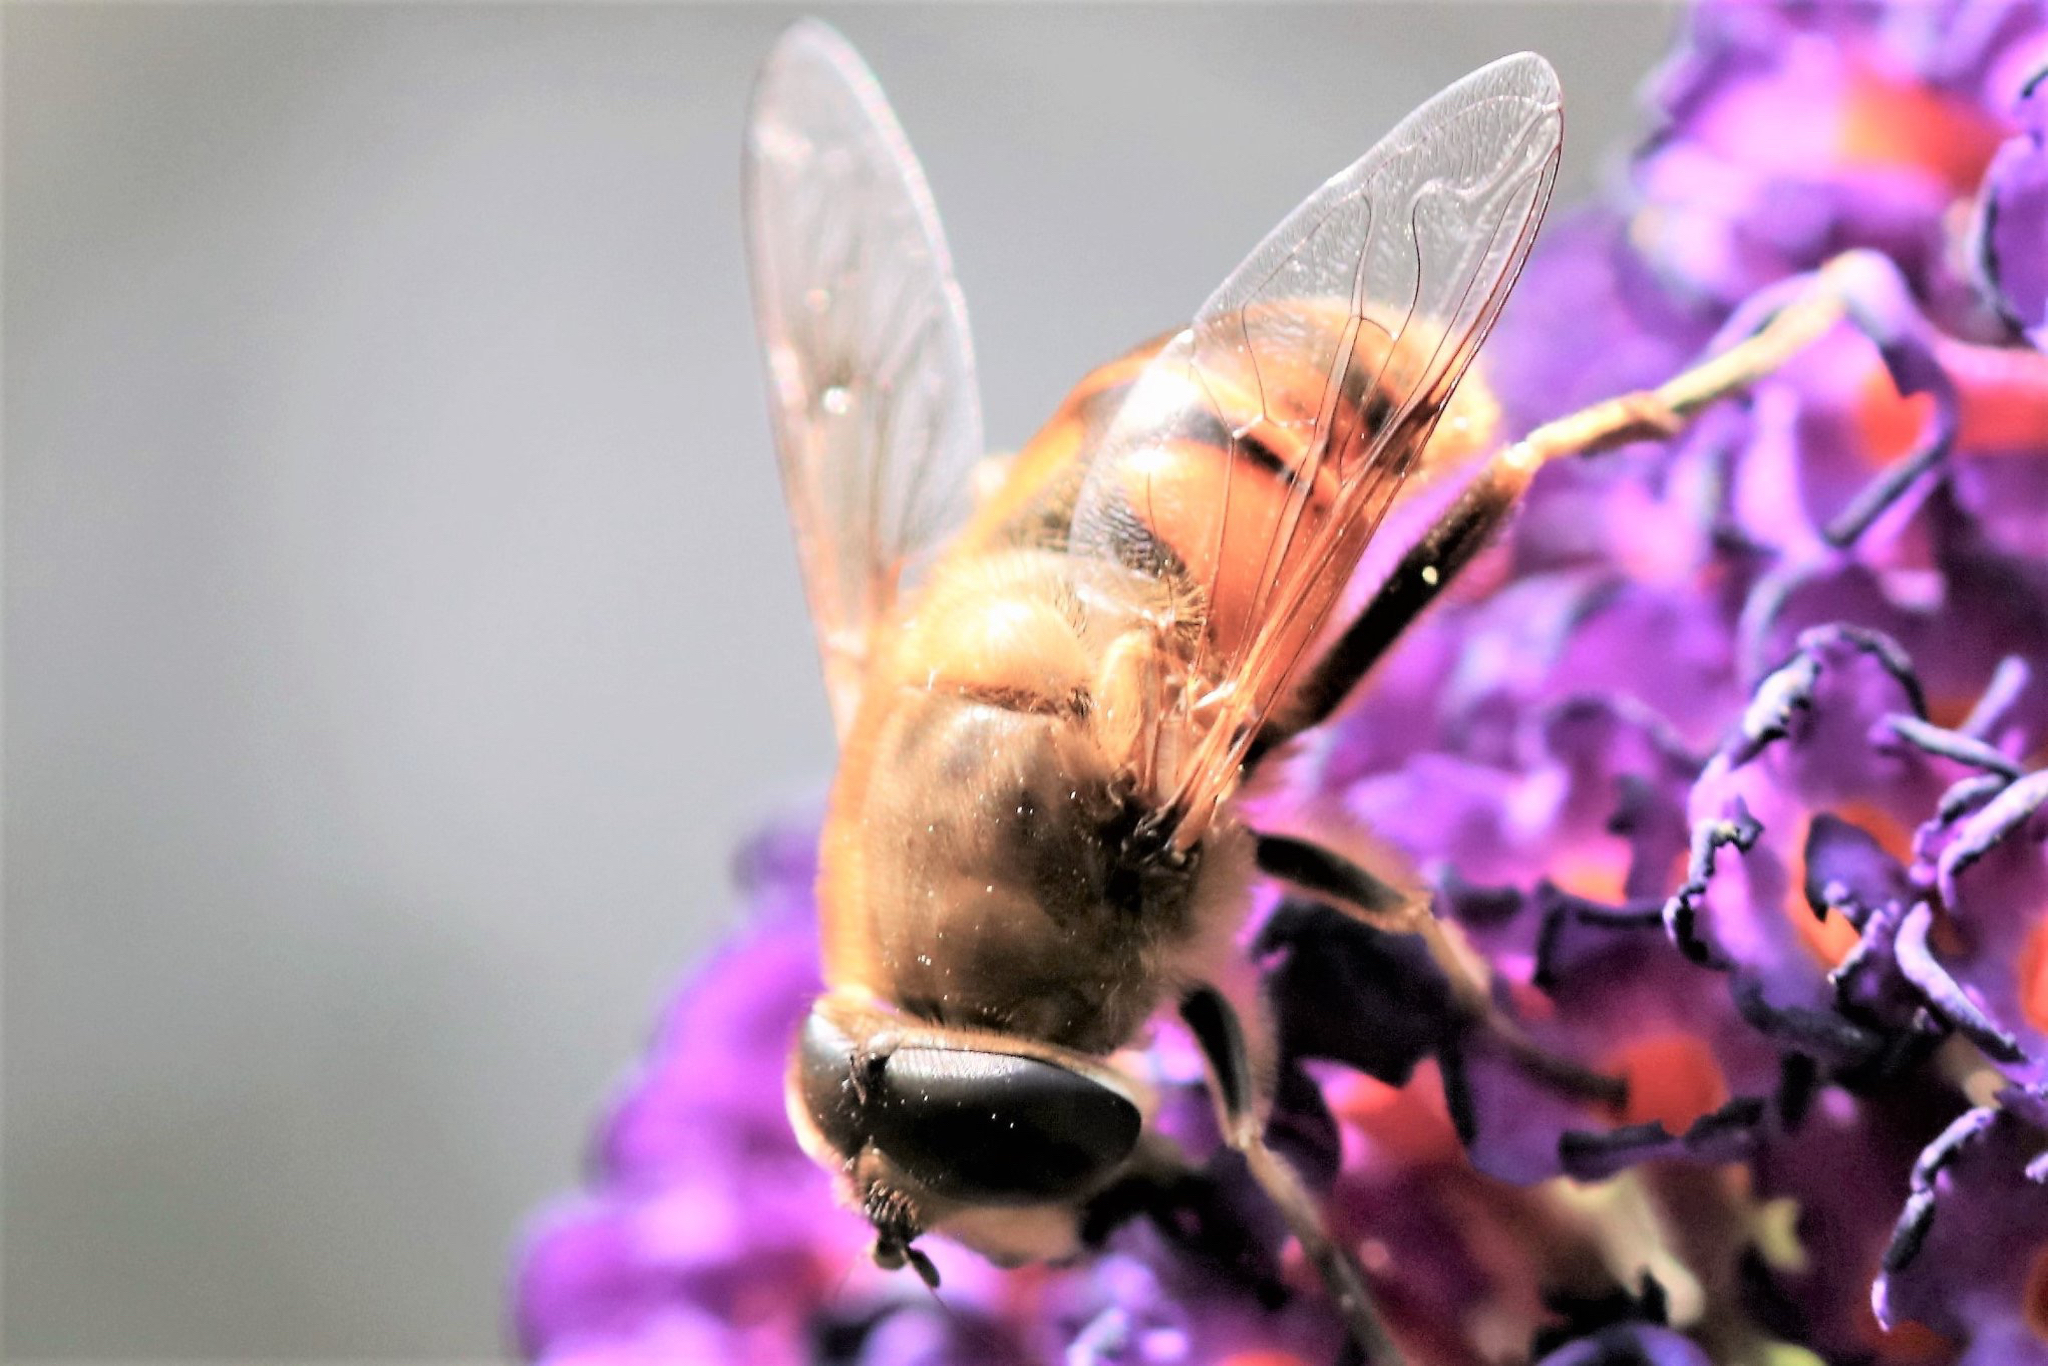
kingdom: Animalia
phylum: Arthropoda
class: Insecta
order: Diptera
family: Syrphidae
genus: Eristalis
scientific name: Eristalis tenax
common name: Drone fly
